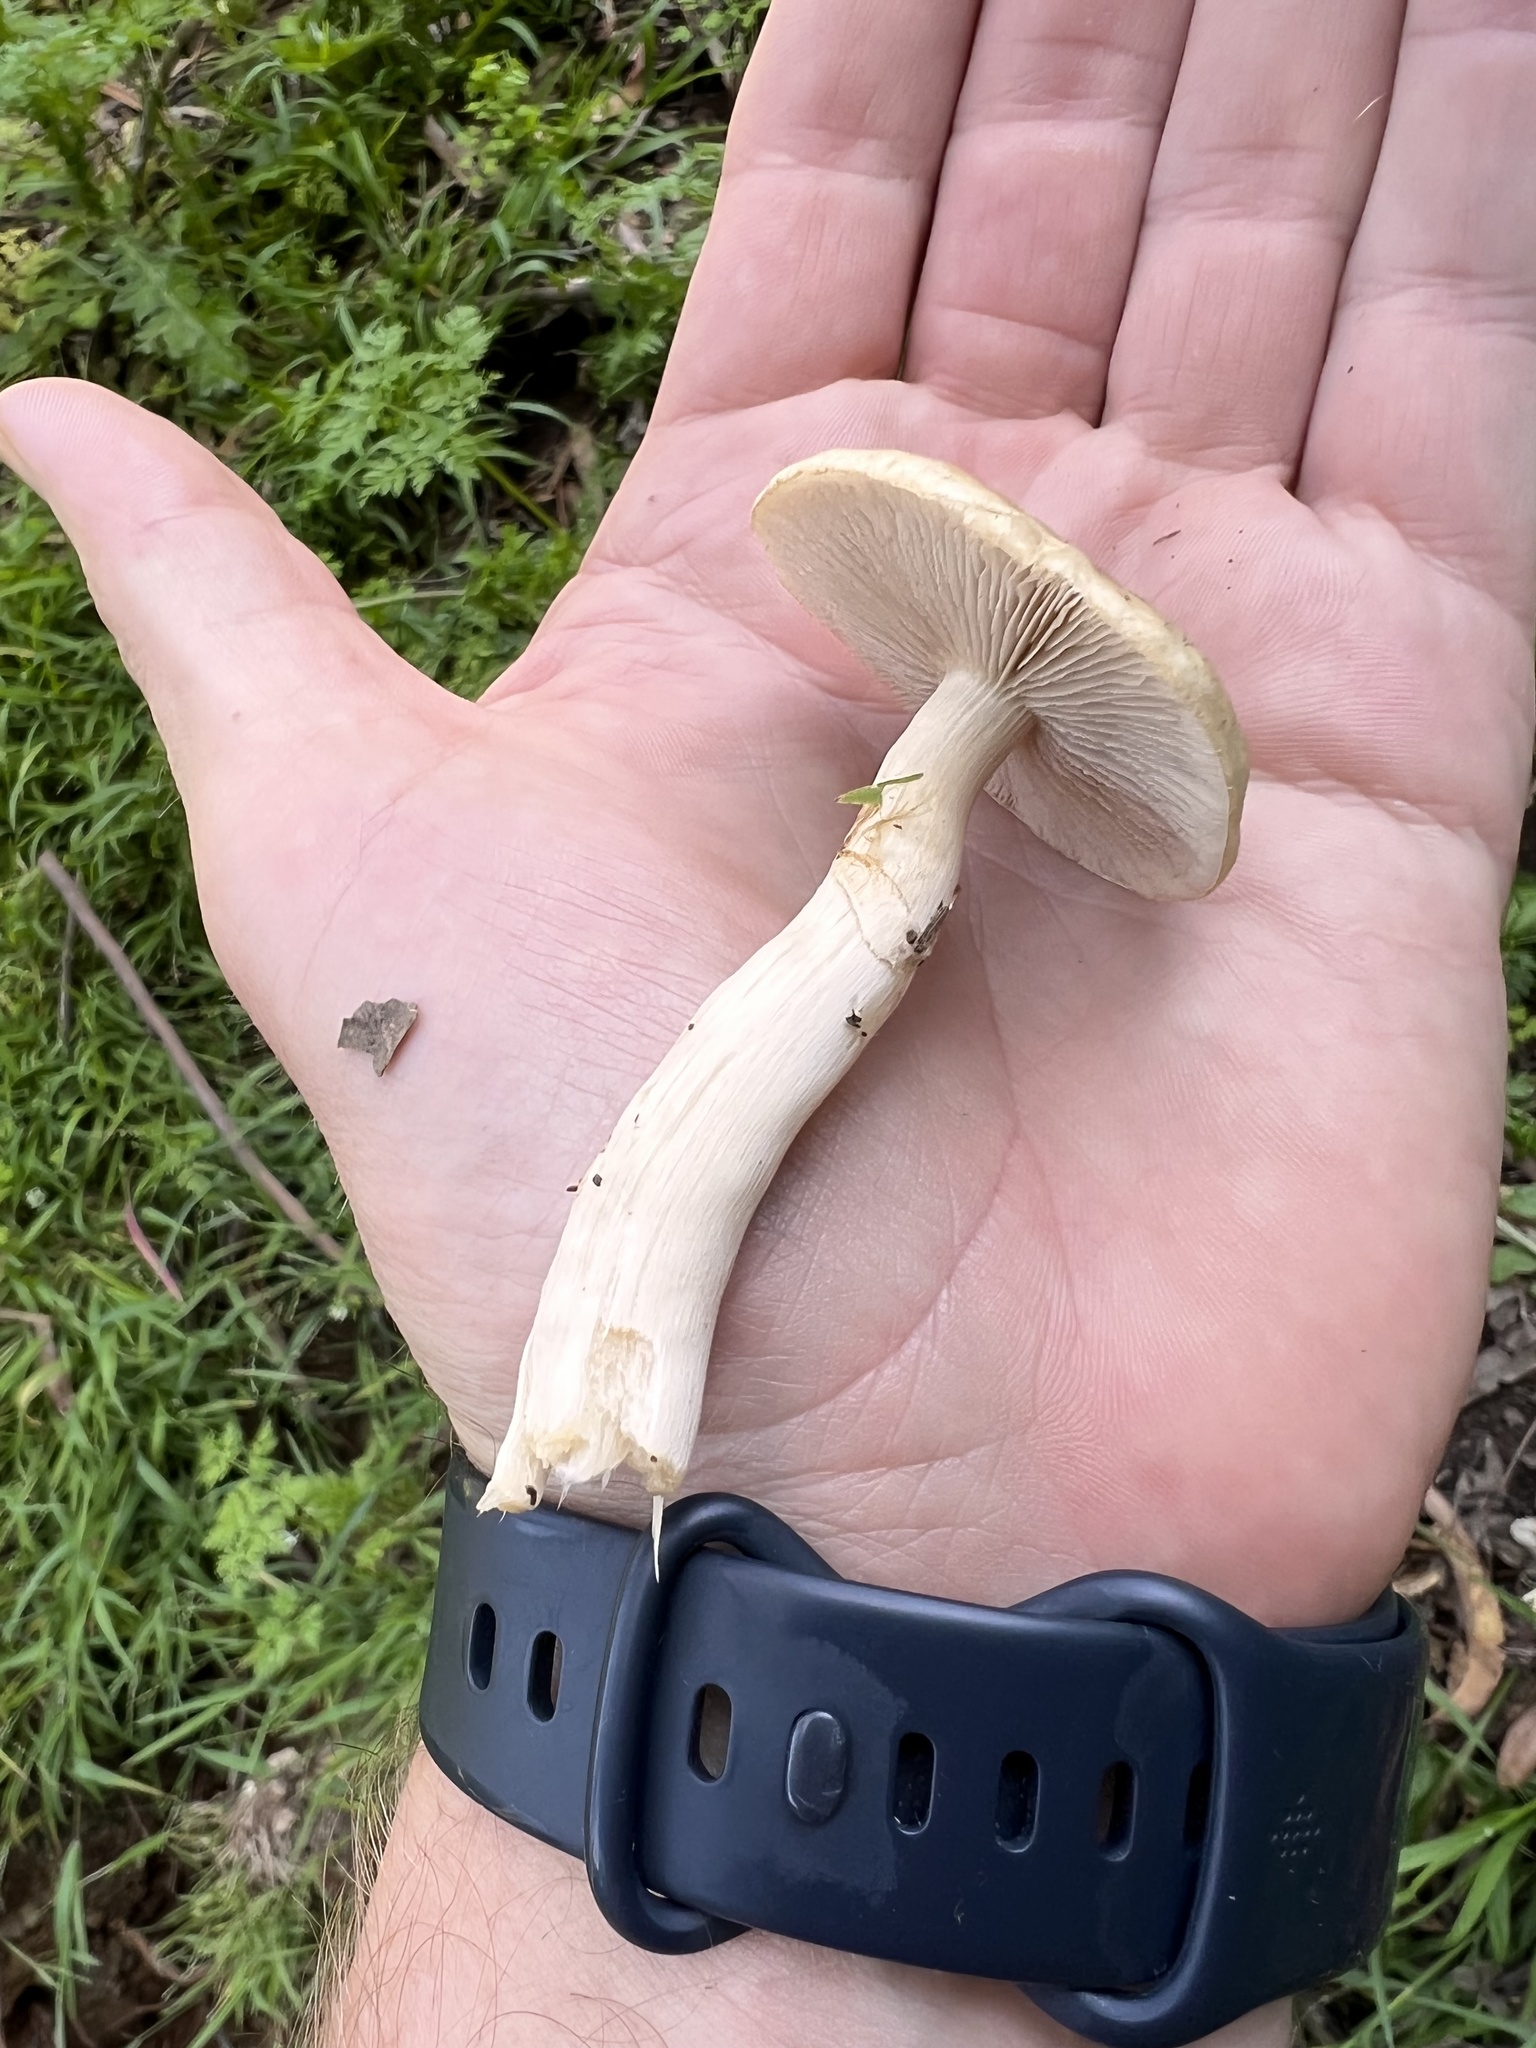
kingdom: Fungi
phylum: Basidiomycota
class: Agaricomycetes
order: Agaricales
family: Strophariaceae
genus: Agrocybe
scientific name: Agrocybe praecox
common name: Spring fieldcap
